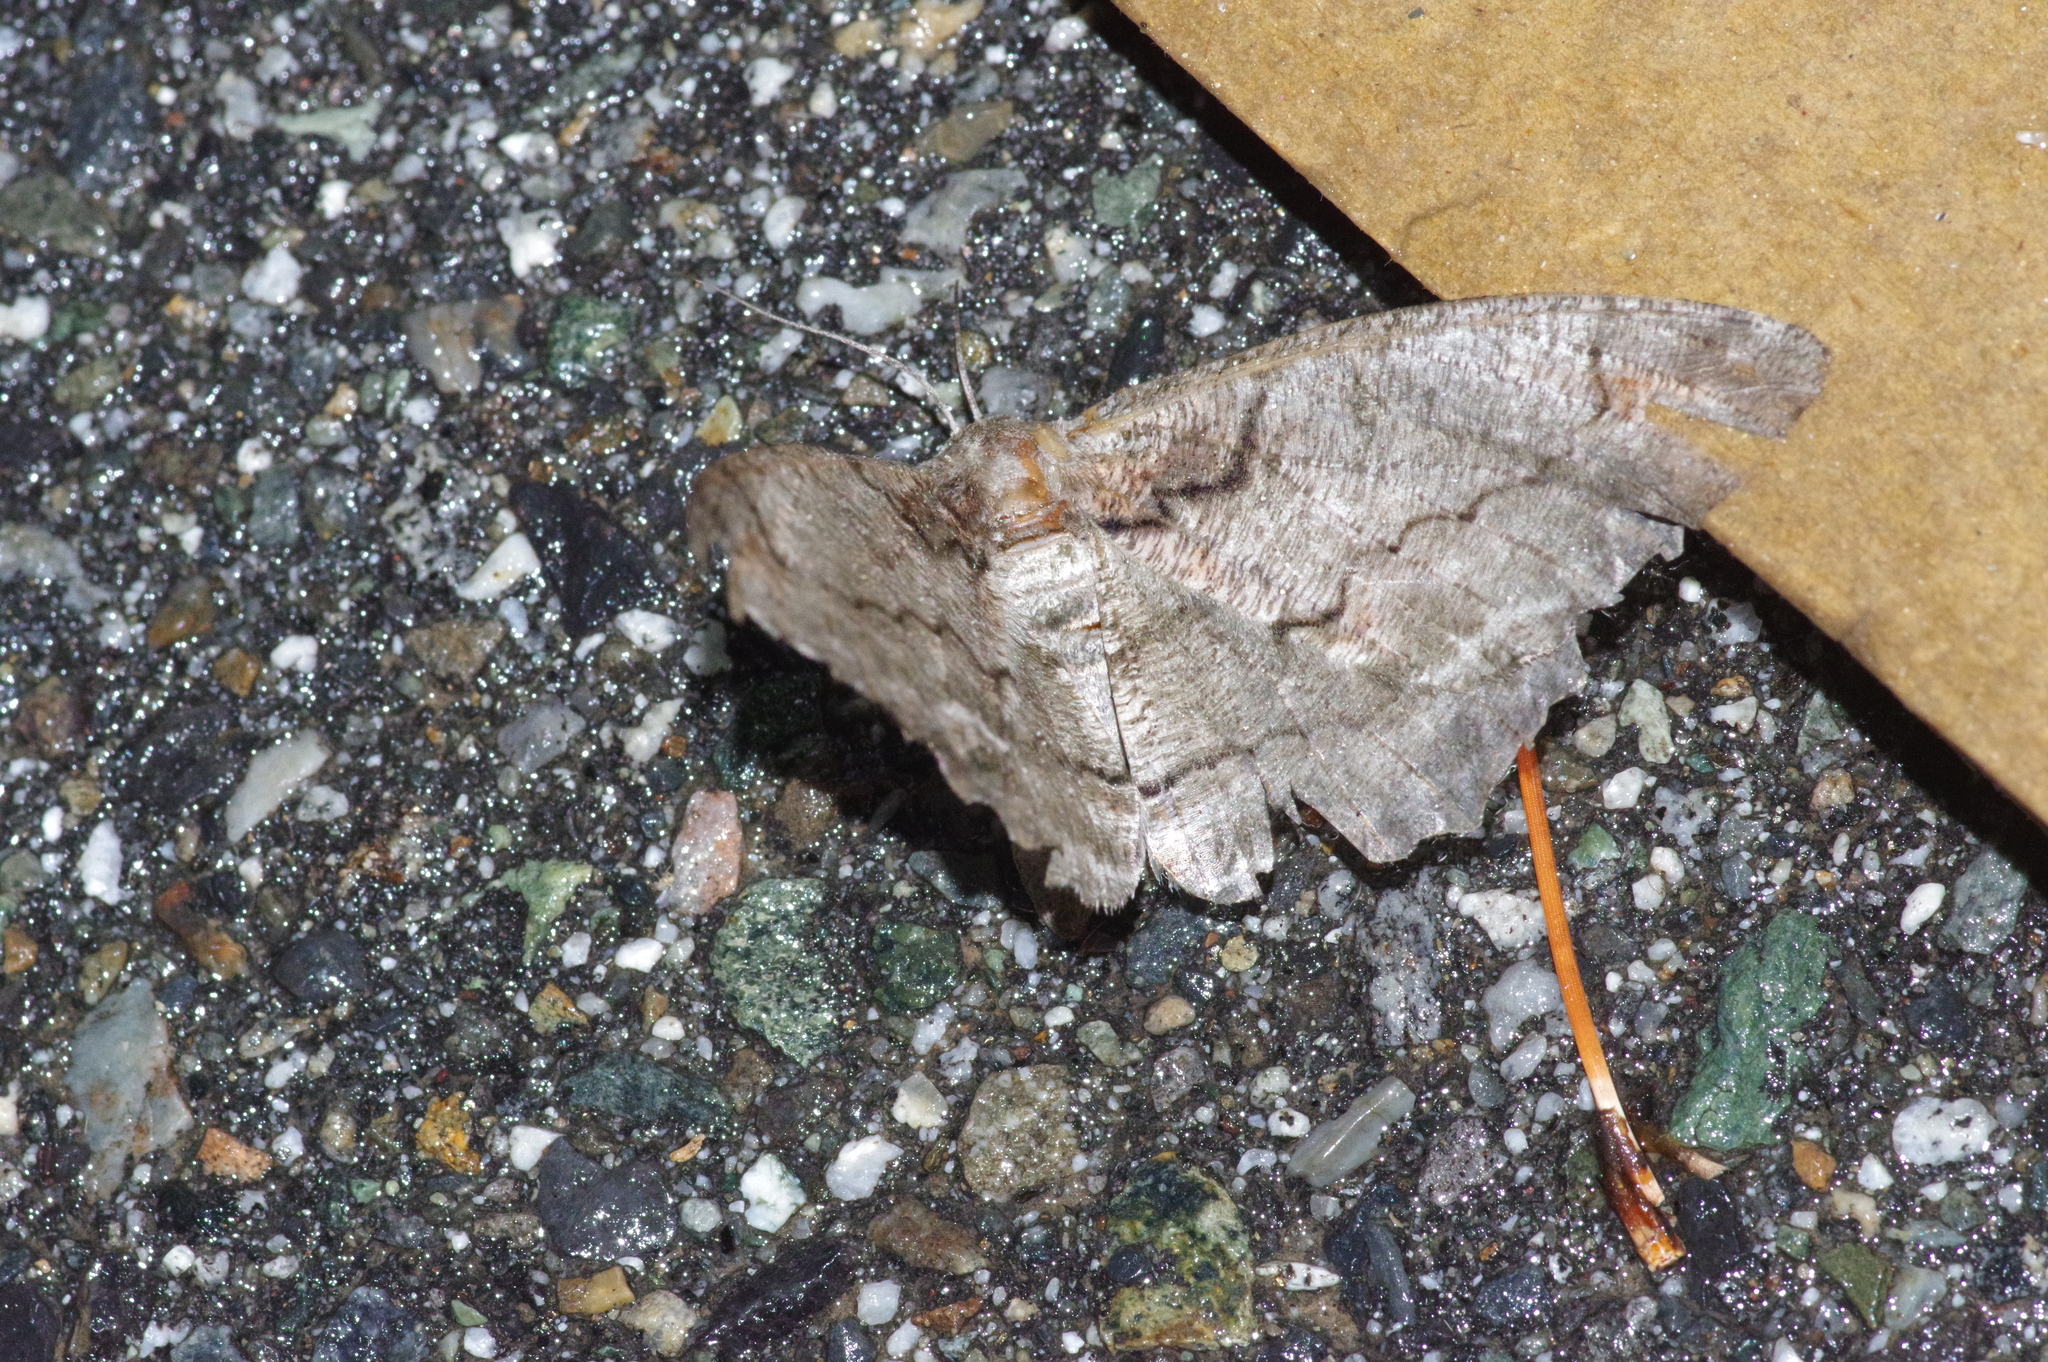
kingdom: Animalia
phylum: Arthropoda
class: Insecta
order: Lepidoptera
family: Geometridae
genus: Amraica
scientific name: Amraica superans
